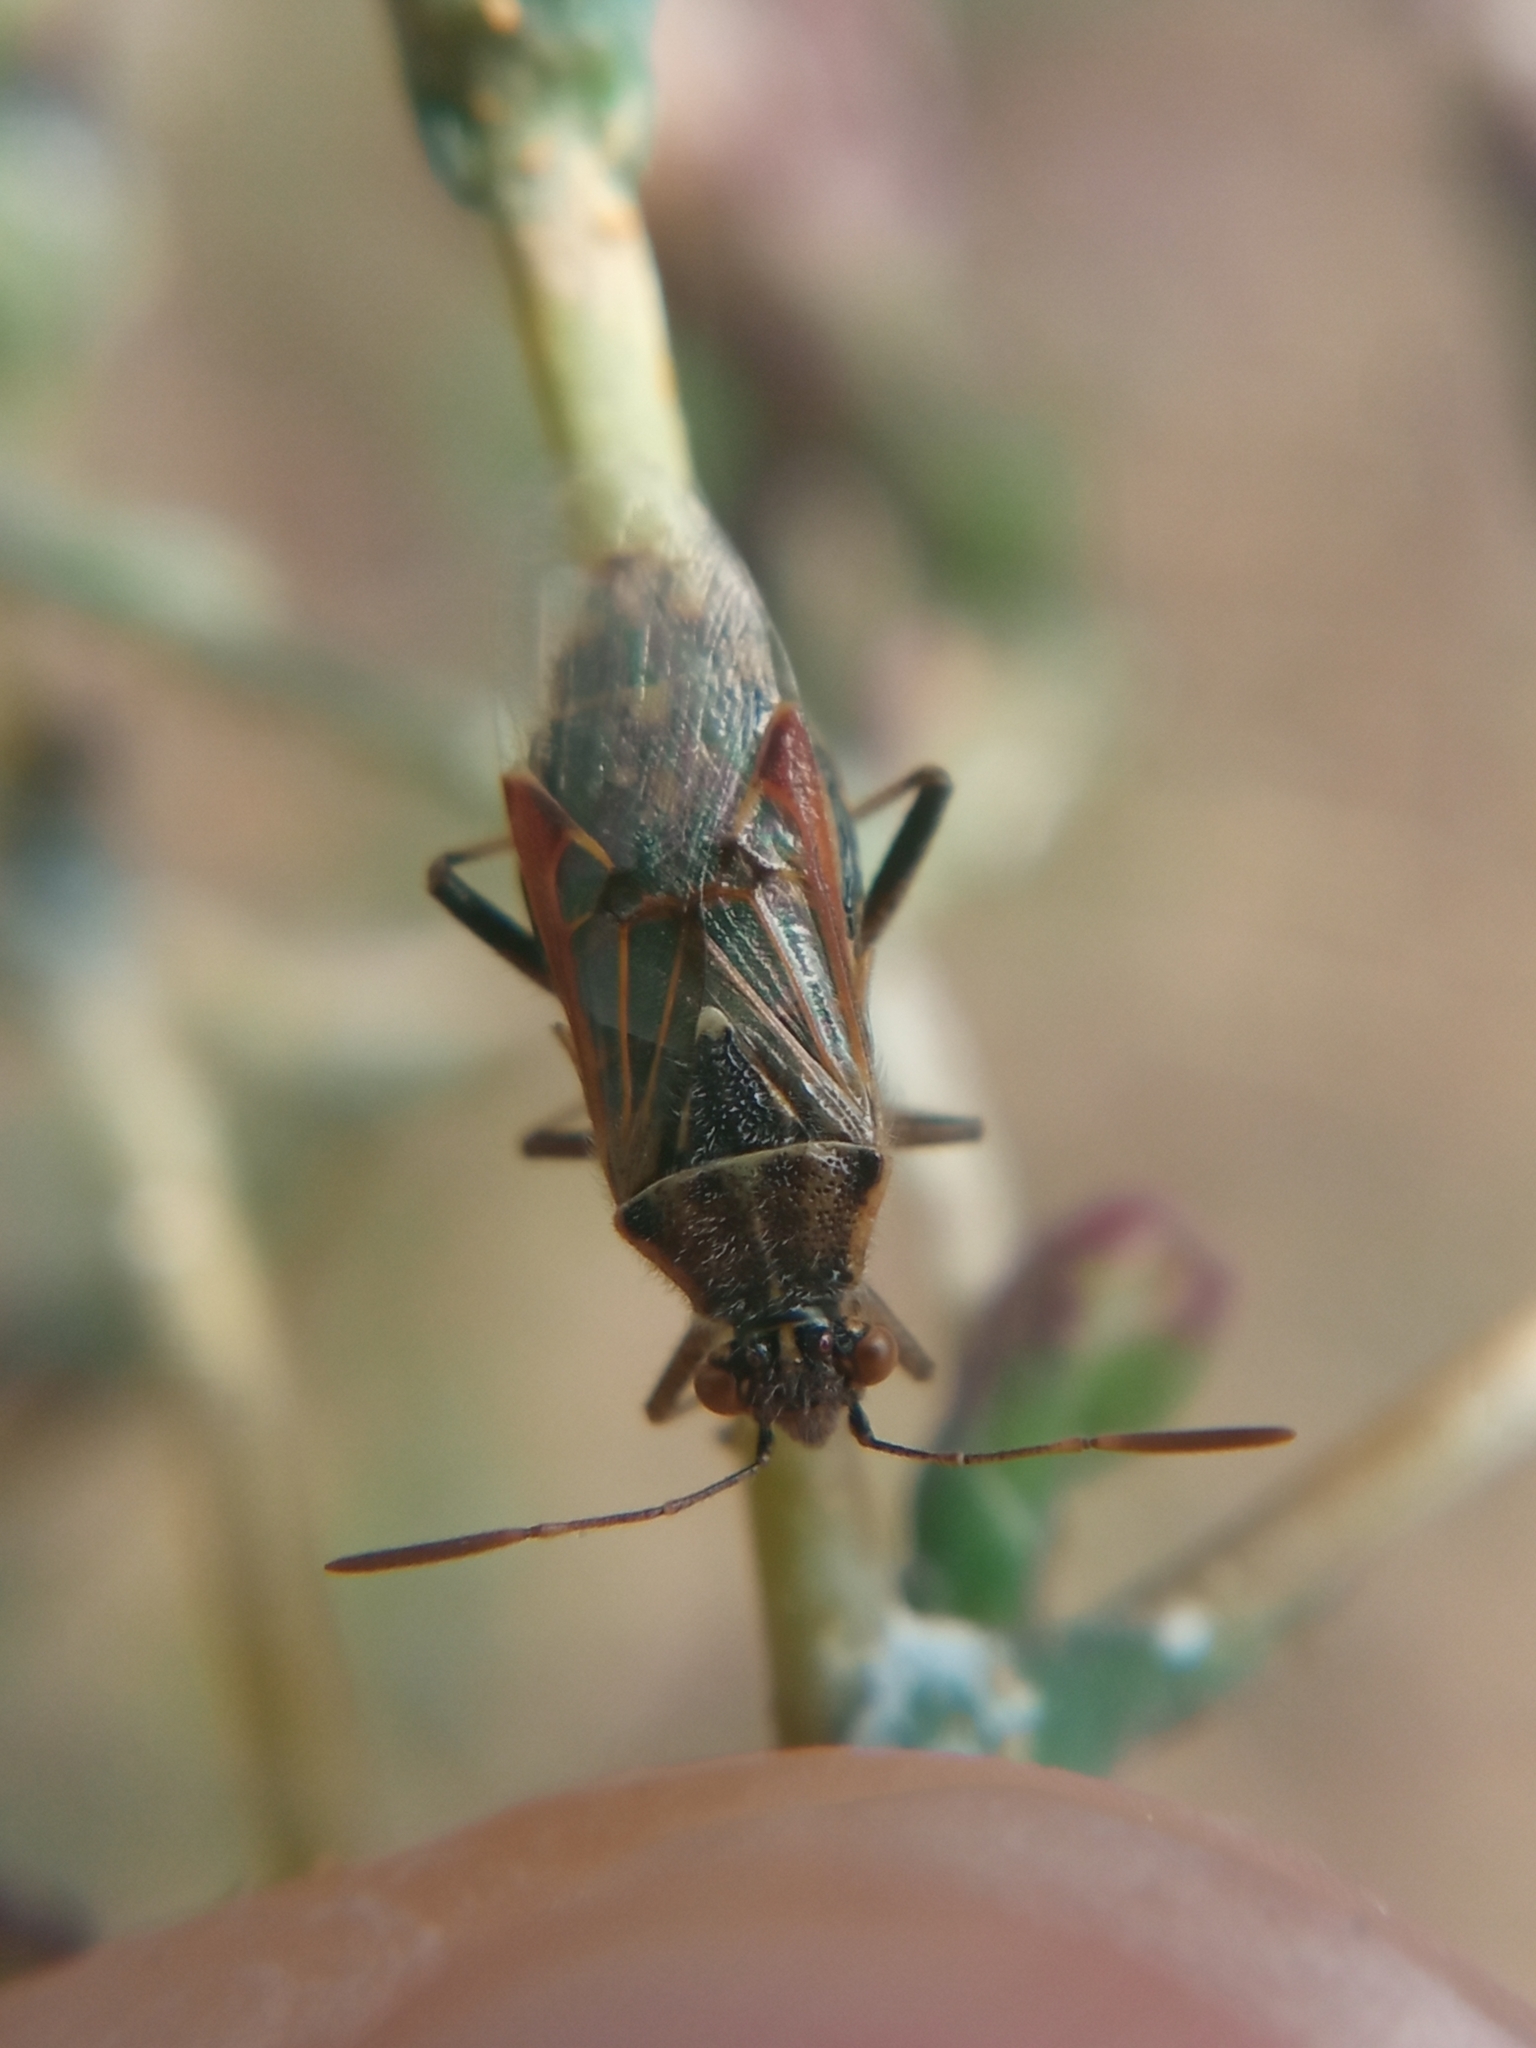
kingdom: Animalia
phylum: Arthropoda
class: Insecta
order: Hemiptera
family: Rhopalidae
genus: Liorhyssus
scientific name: Liorhyssus hyalinus
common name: Scentless plant bug
